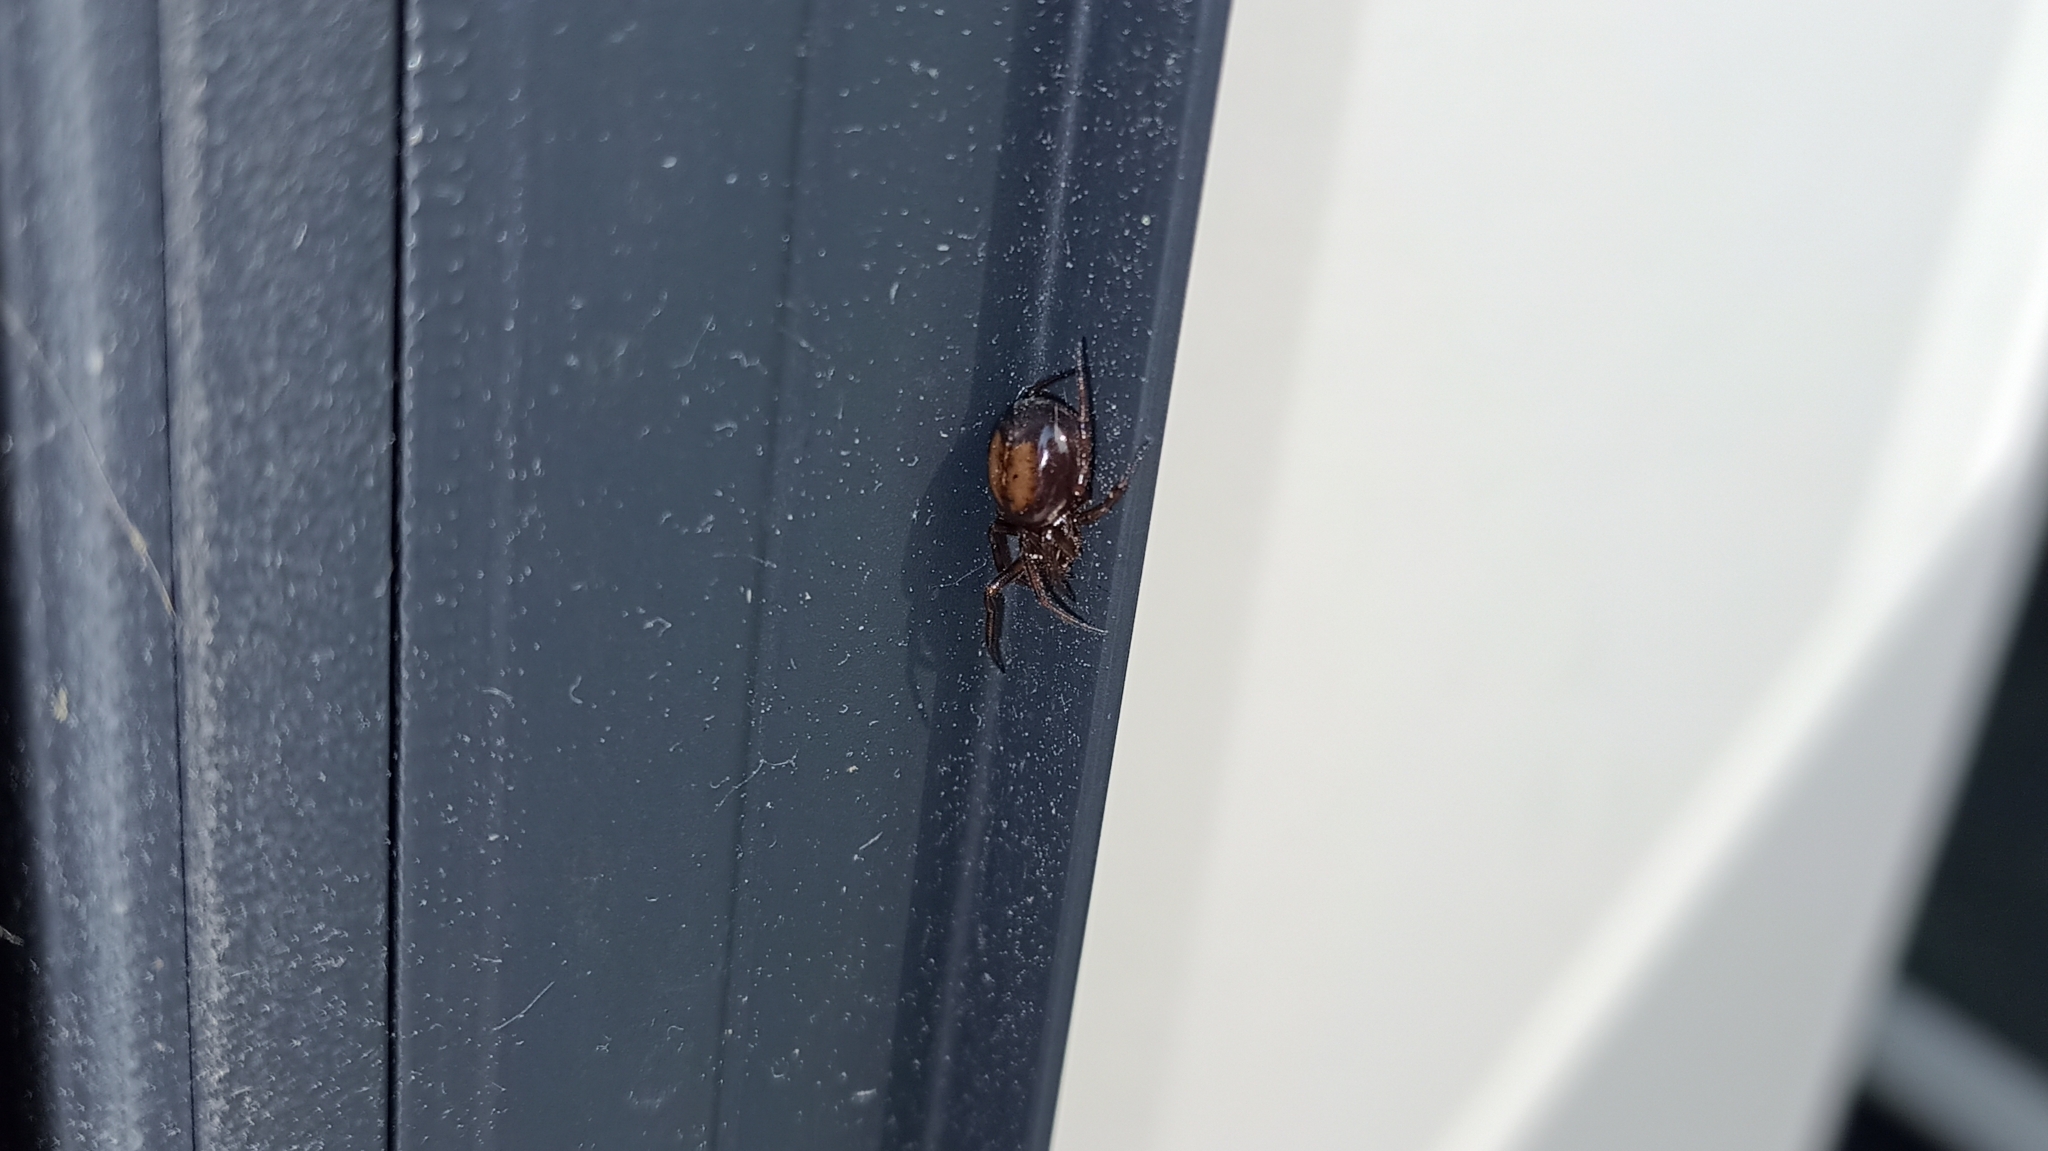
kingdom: Animalia
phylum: Arthropoda
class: Arachnida
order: Araneae
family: Theridiidae
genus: Steatoda
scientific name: Steatoda bipunctata
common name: False widow
